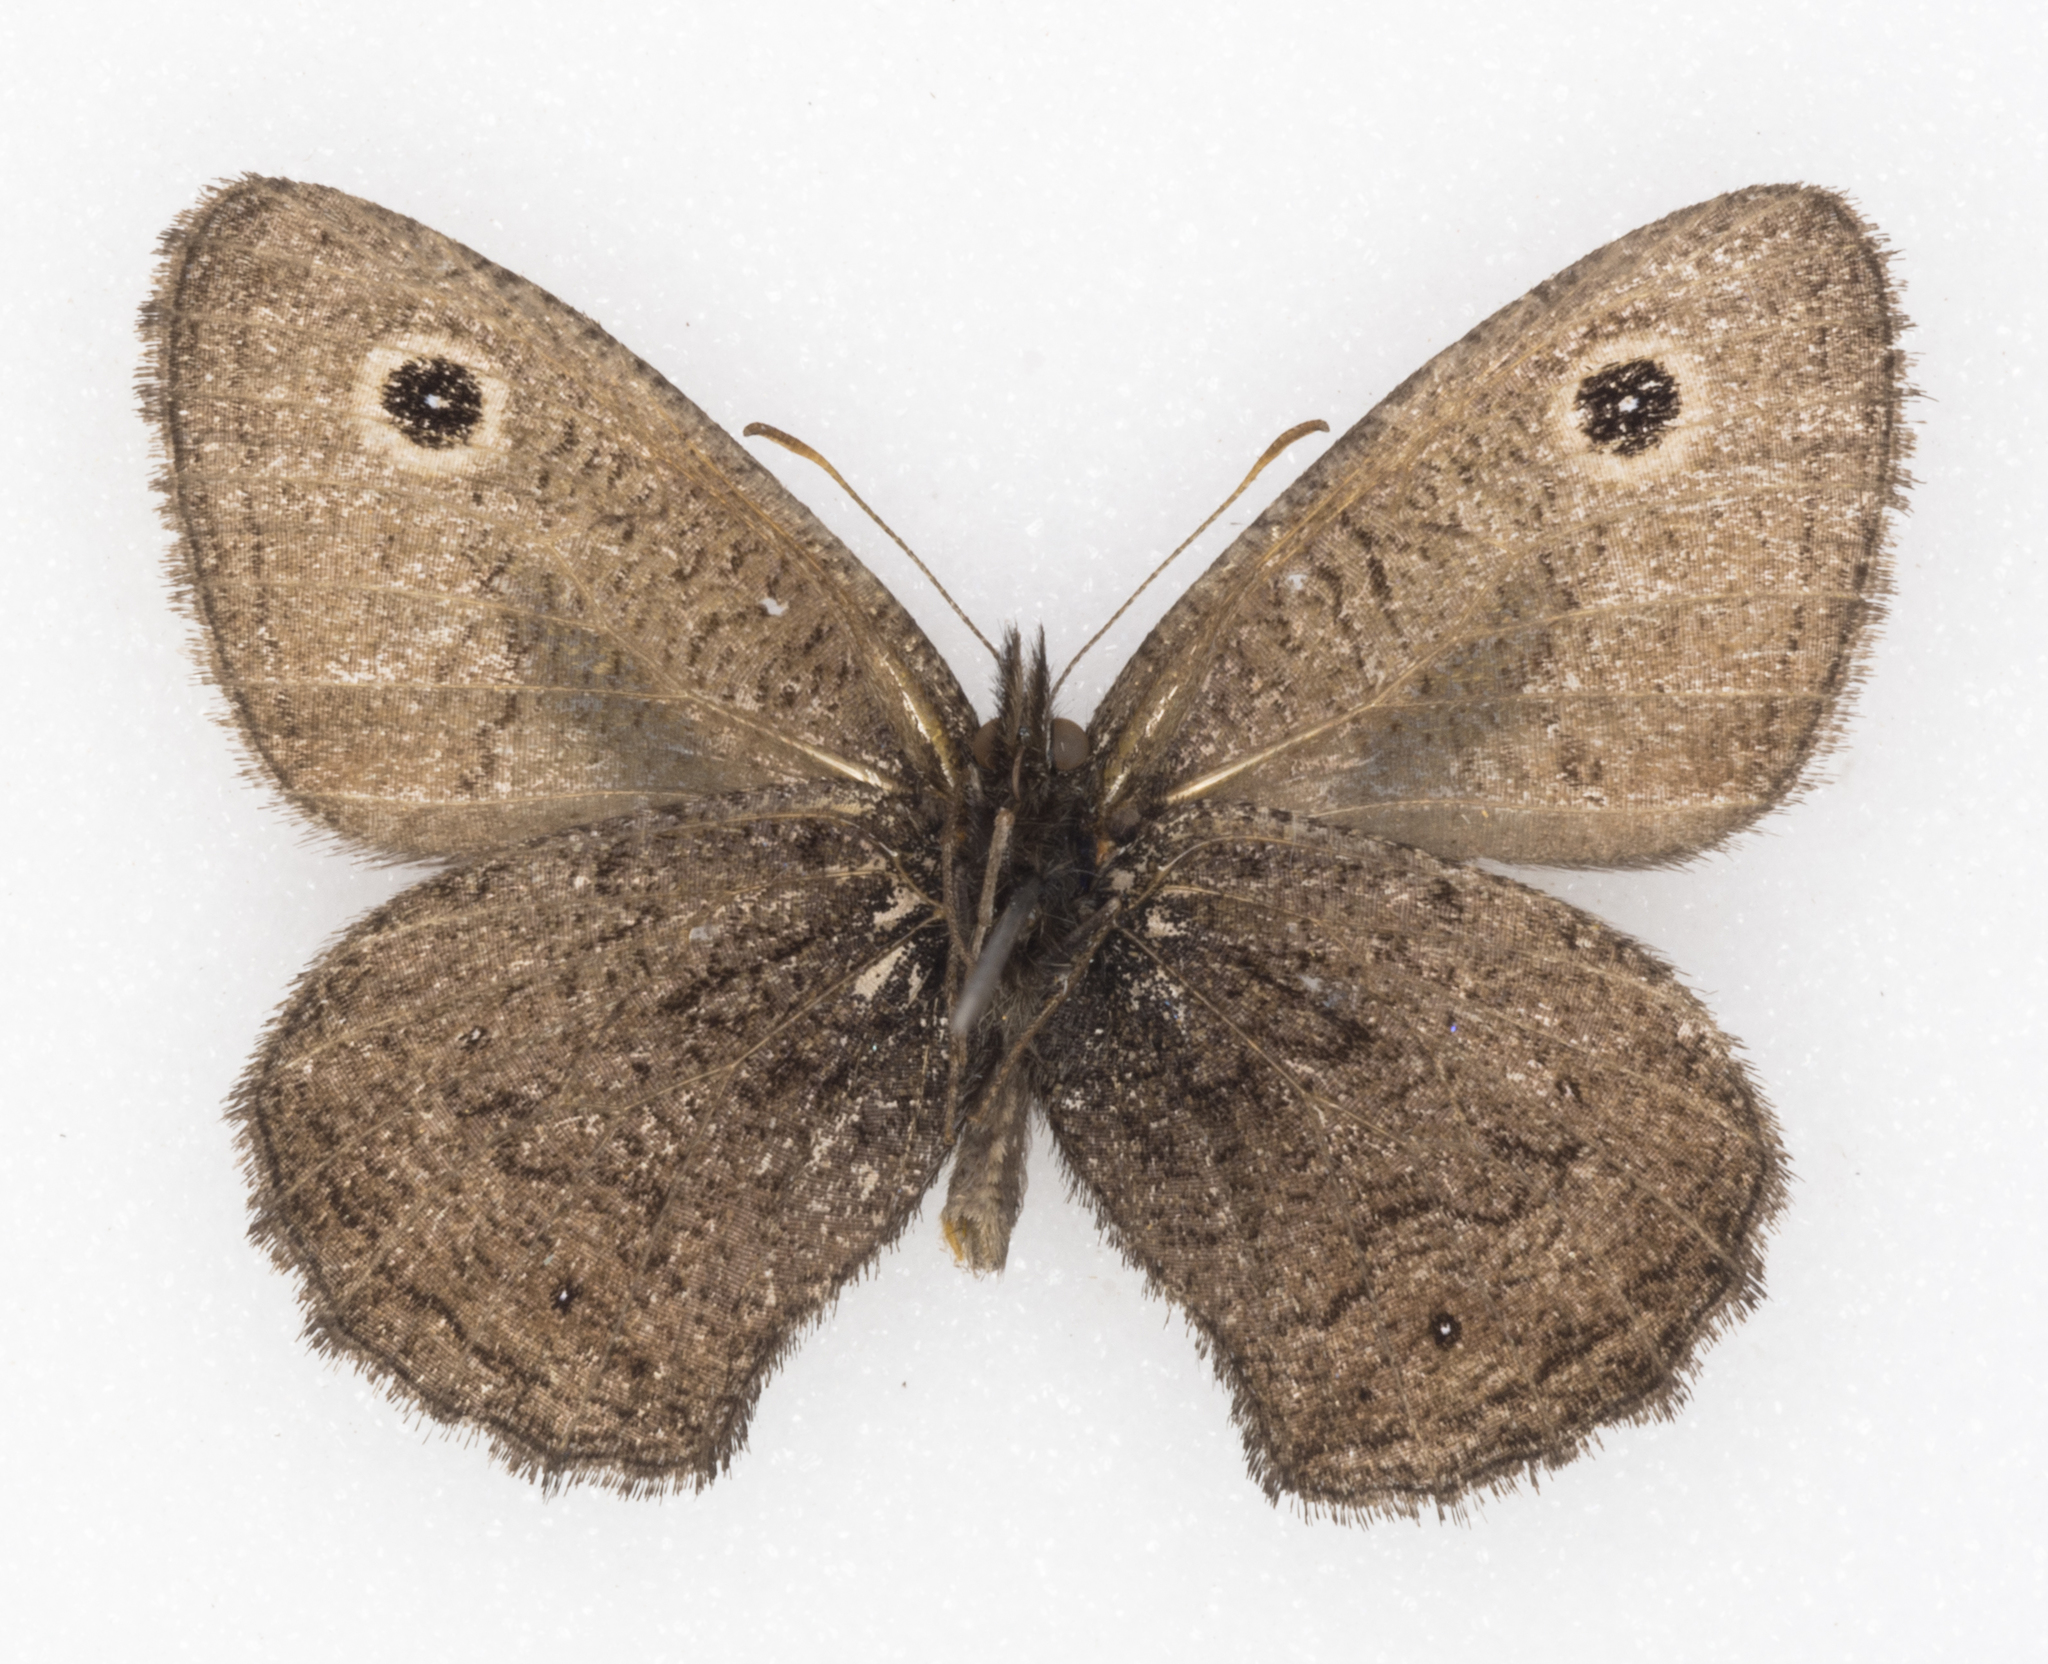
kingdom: Animalia
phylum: Arthropoda
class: Insecta
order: Lepidoptera
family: Nymphalidae
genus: Cercyonis
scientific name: Cercyonis oetus
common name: Small wood-nymph
